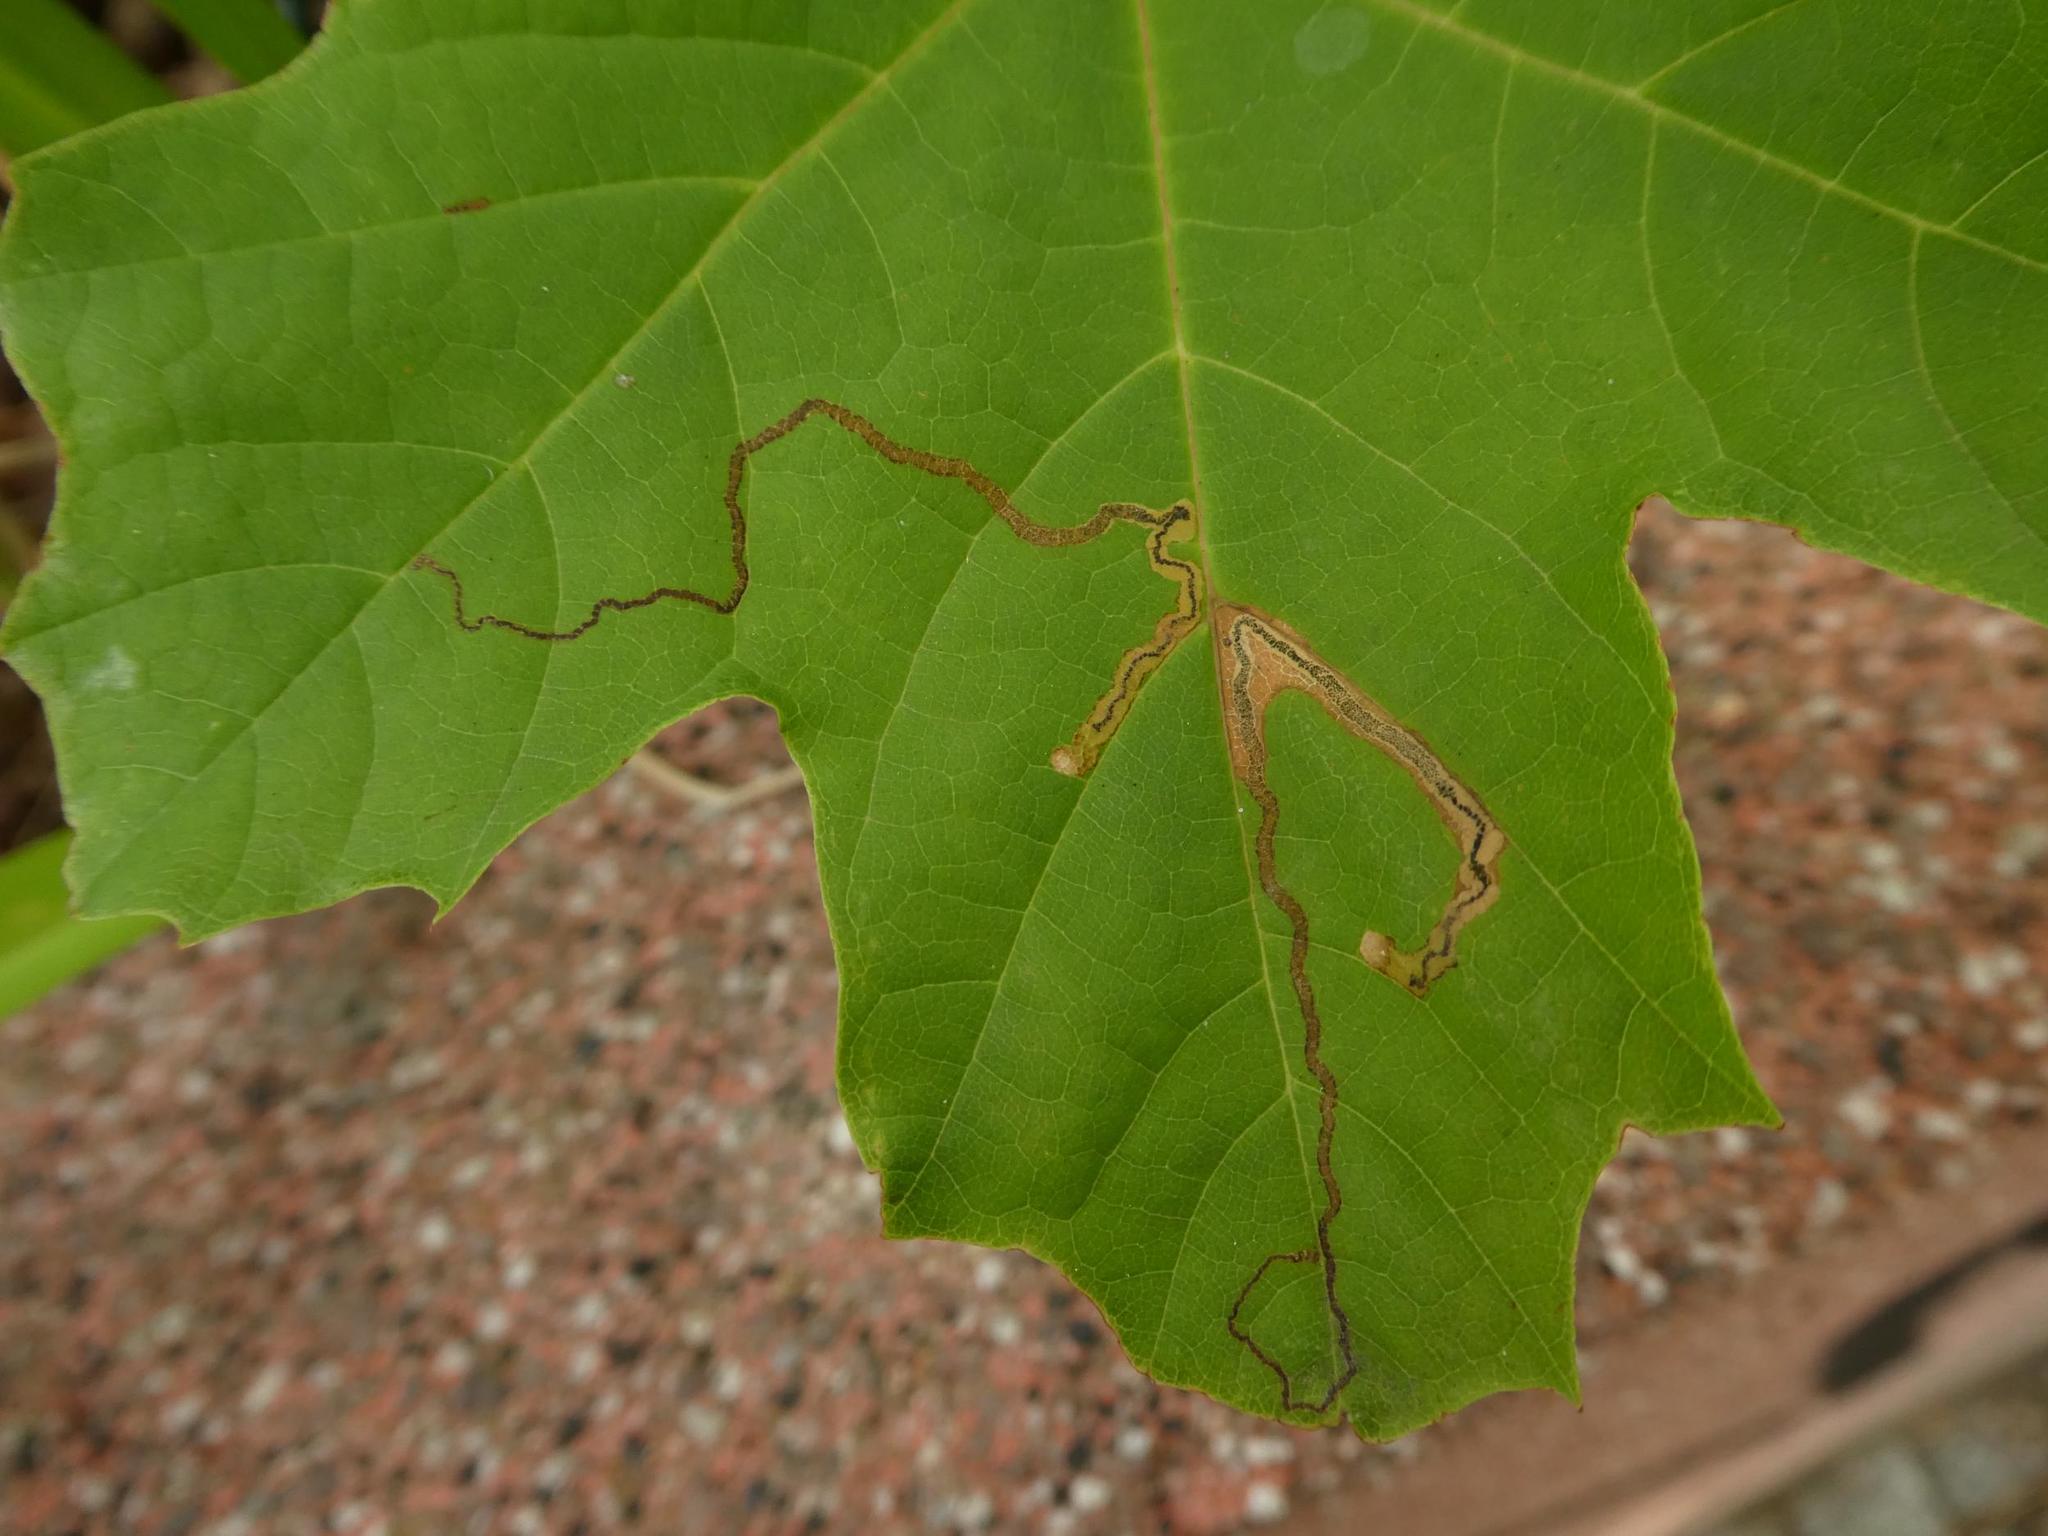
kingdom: Animalia
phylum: Arthropoda
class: Insecta
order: Lepidoptera
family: Nepticulidae
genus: Stigmella
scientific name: Stigmella aceris
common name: Scarce maple pigmy
